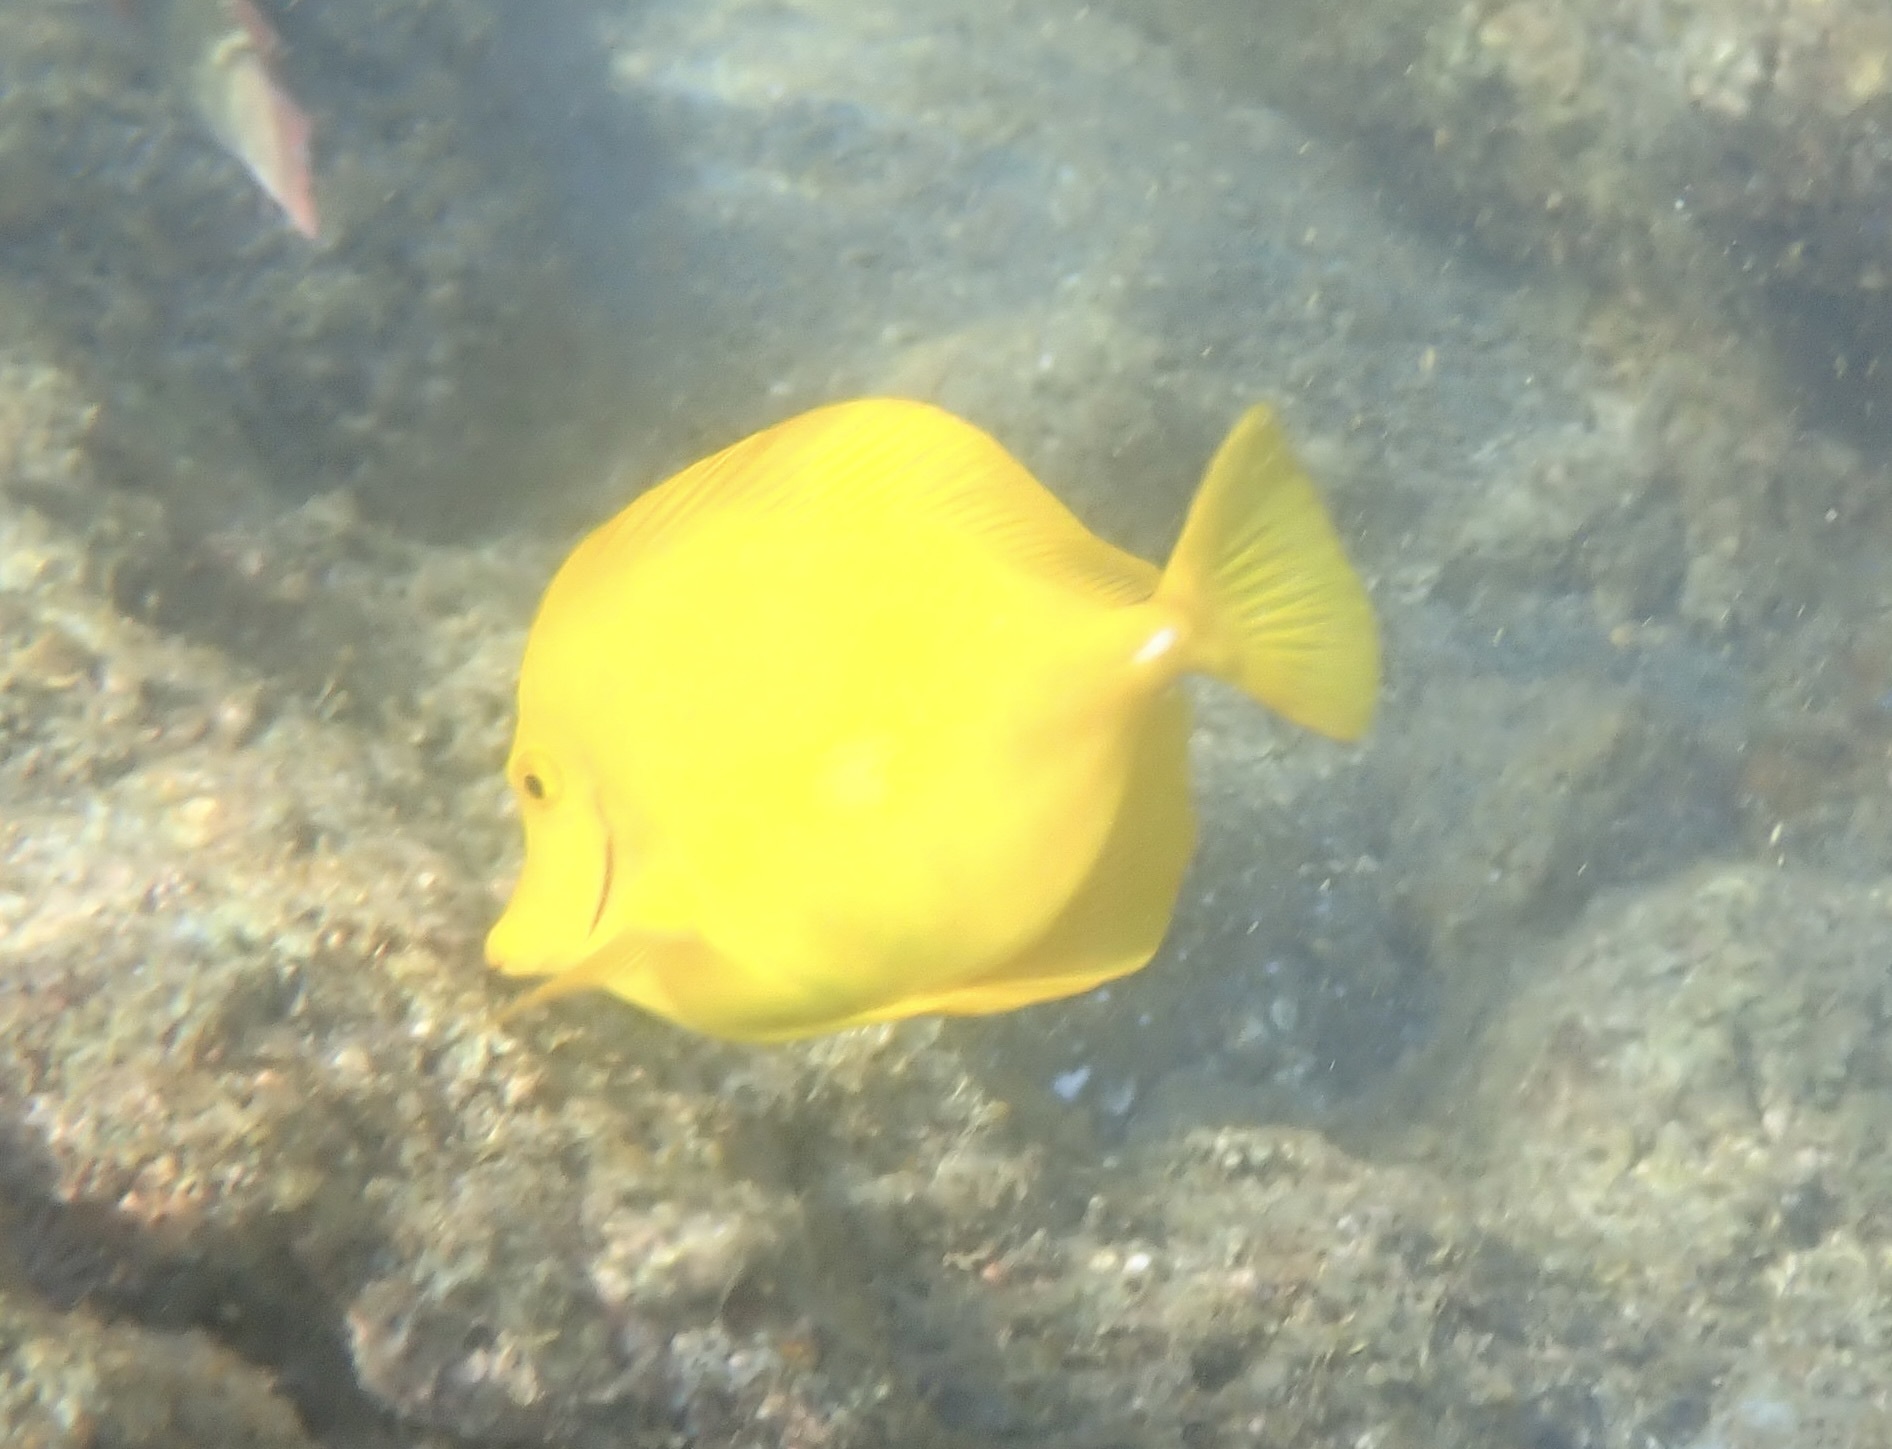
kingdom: Animalia
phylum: Chordata
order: Perciformes
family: Acanthuridae
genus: Zebrasoma
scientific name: Zebrasoma flavescens
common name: Yellow tang
